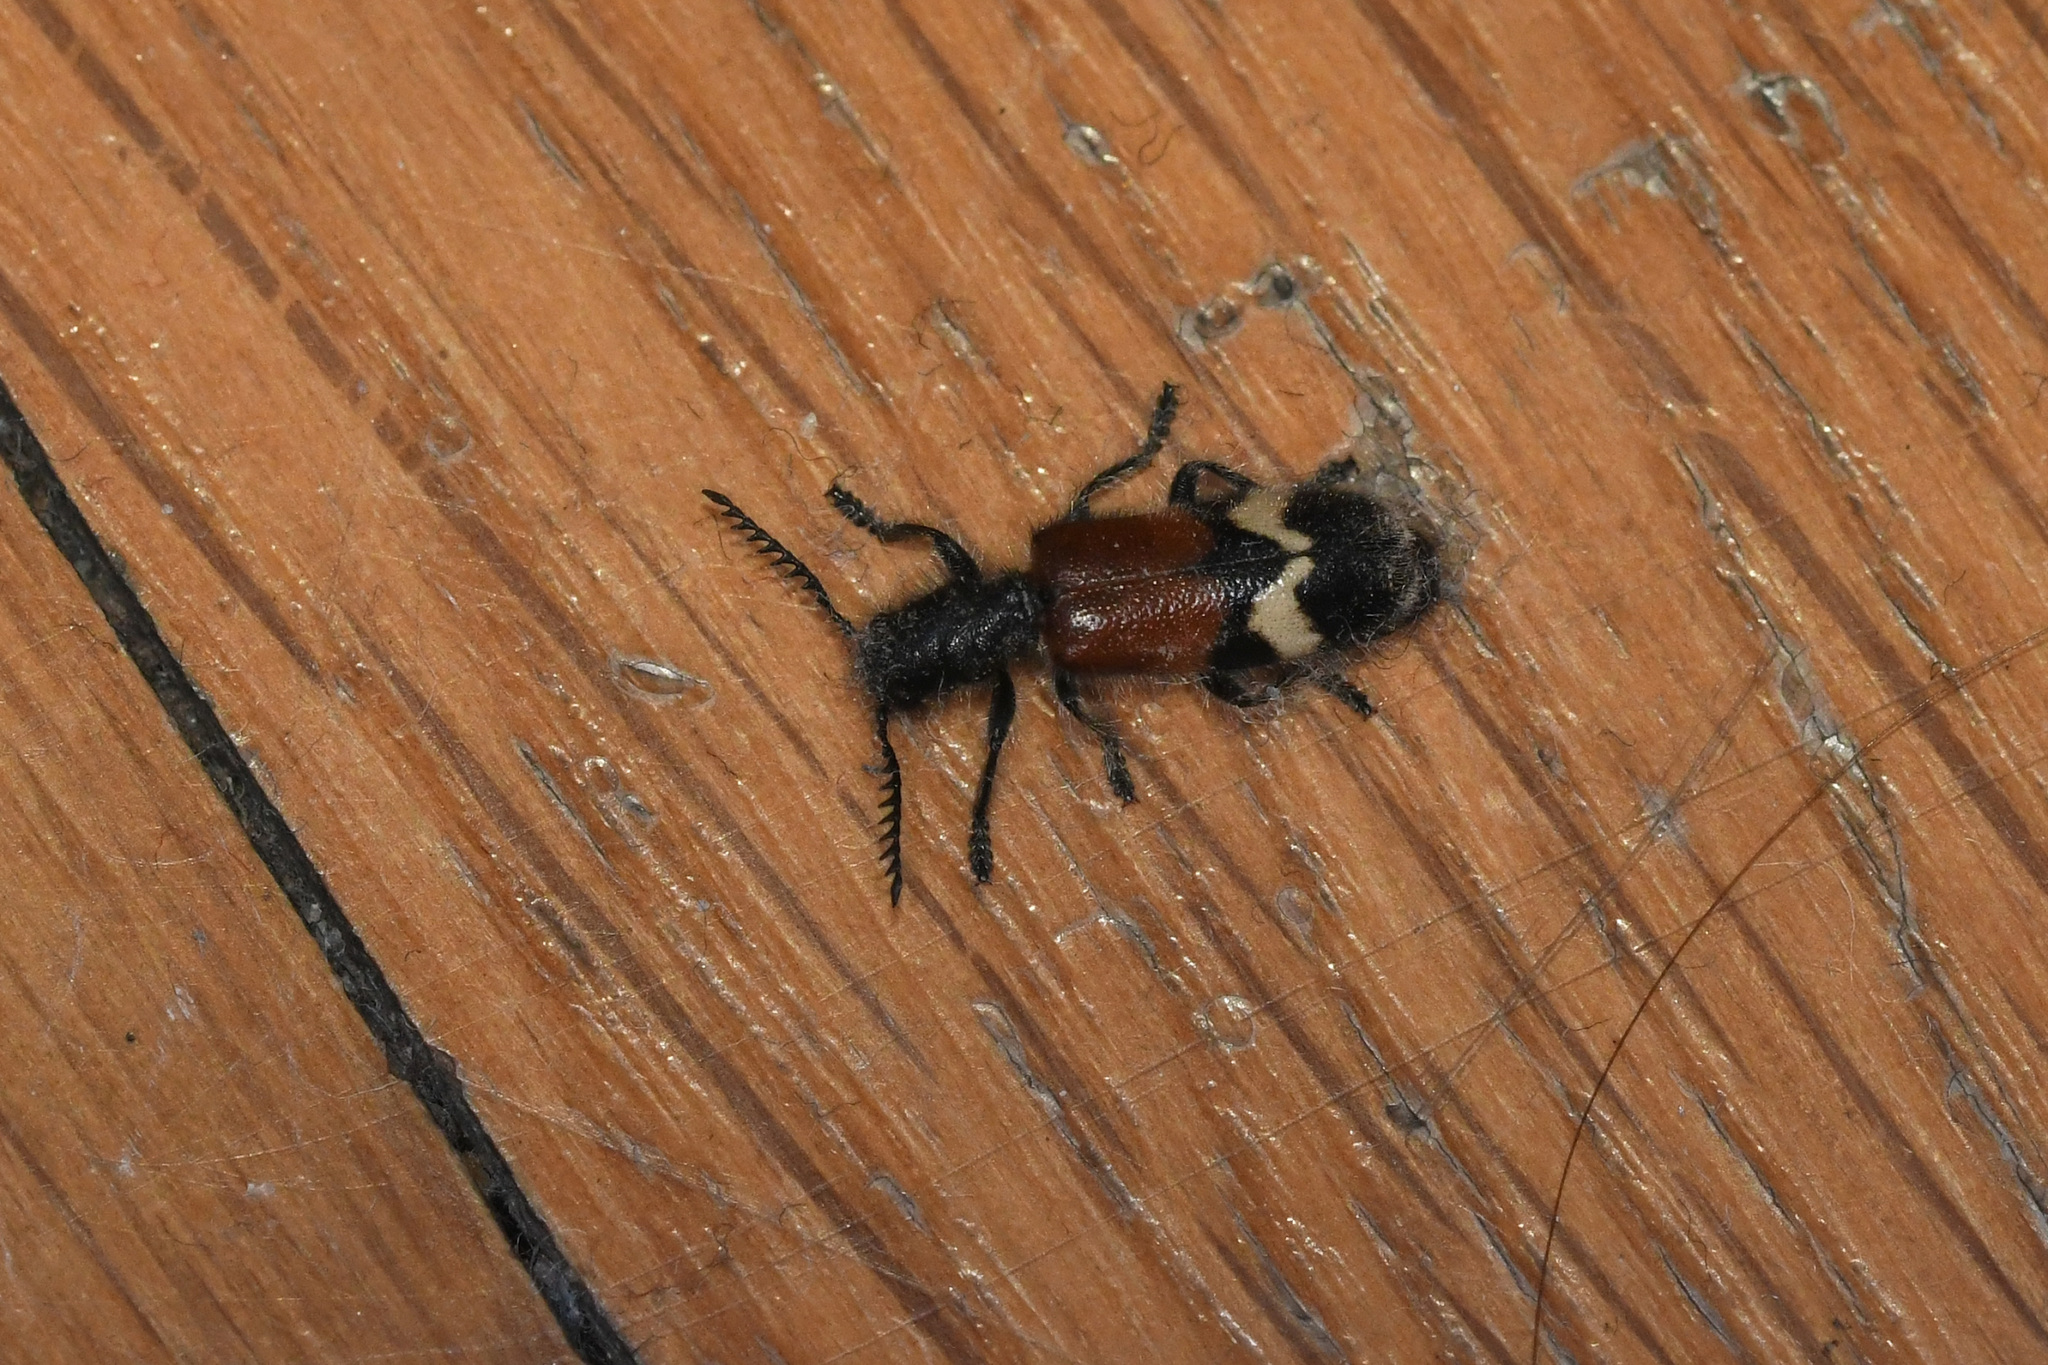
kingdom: Animalia
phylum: Arthropoda
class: Insecta
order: Coleoptera
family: Cleridae
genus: Tillus
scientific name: Tillus pectinicornis
